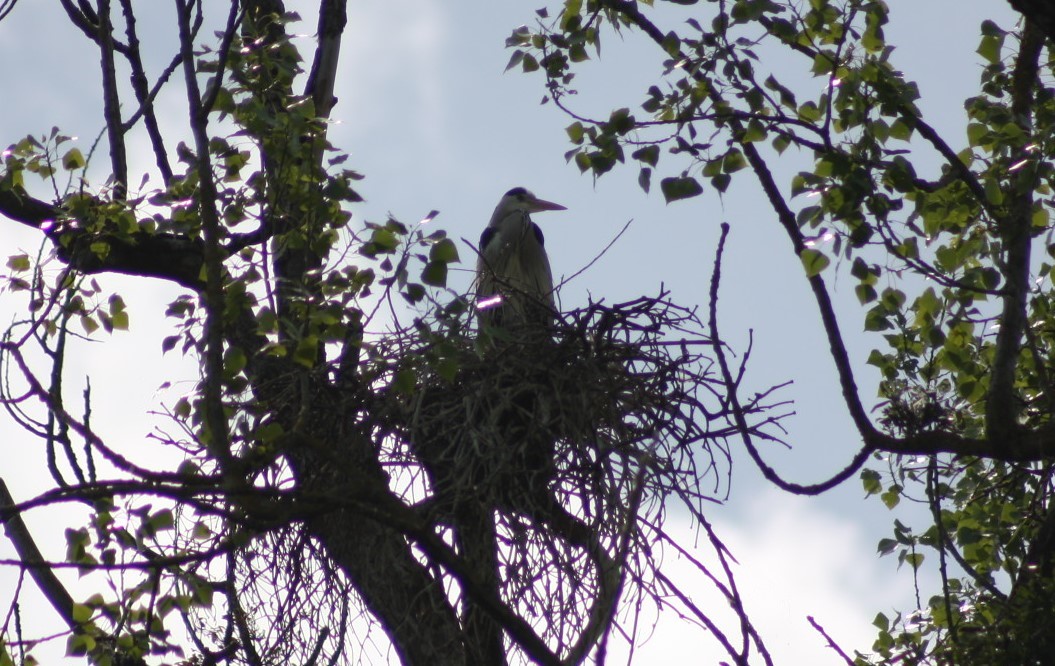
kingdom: Animalia
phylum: Chordata
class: Aves
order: Pelecaniformes
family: Ardeidae
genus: Ardea
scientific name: Ardea cinerea
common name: Grey heron
